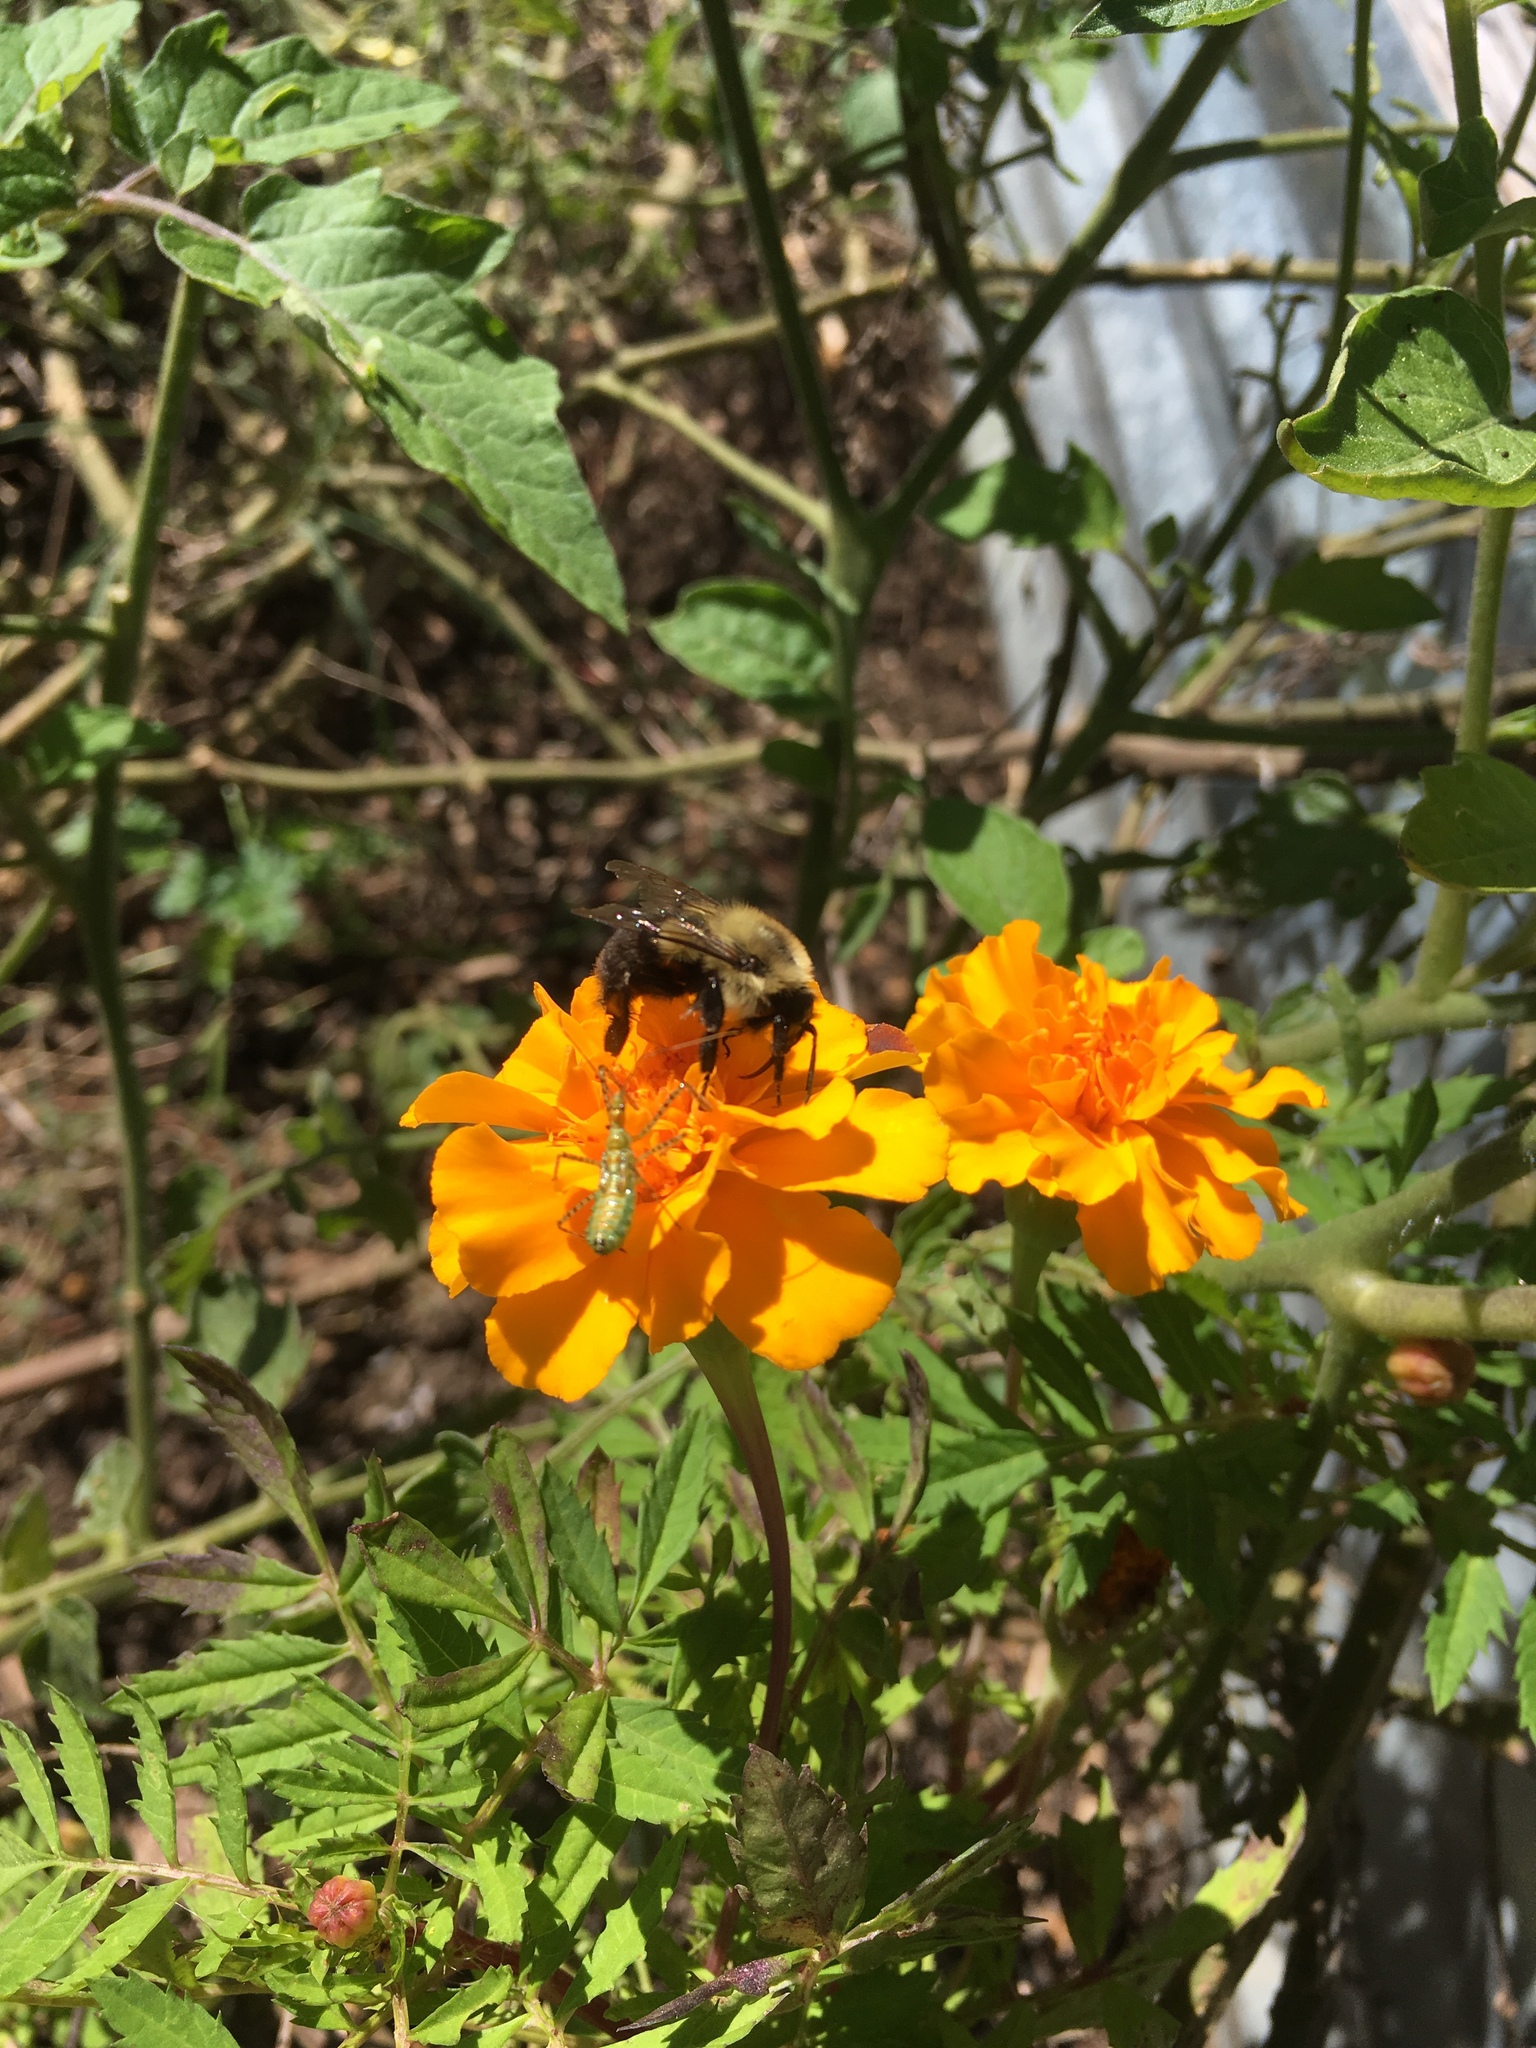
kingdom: Animalia
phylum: Arthropoda
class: Insecta
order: Hymenoptera
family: Apidae
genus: Bombus
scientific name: Bombus impatiens
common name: Common eastern bumble bee
